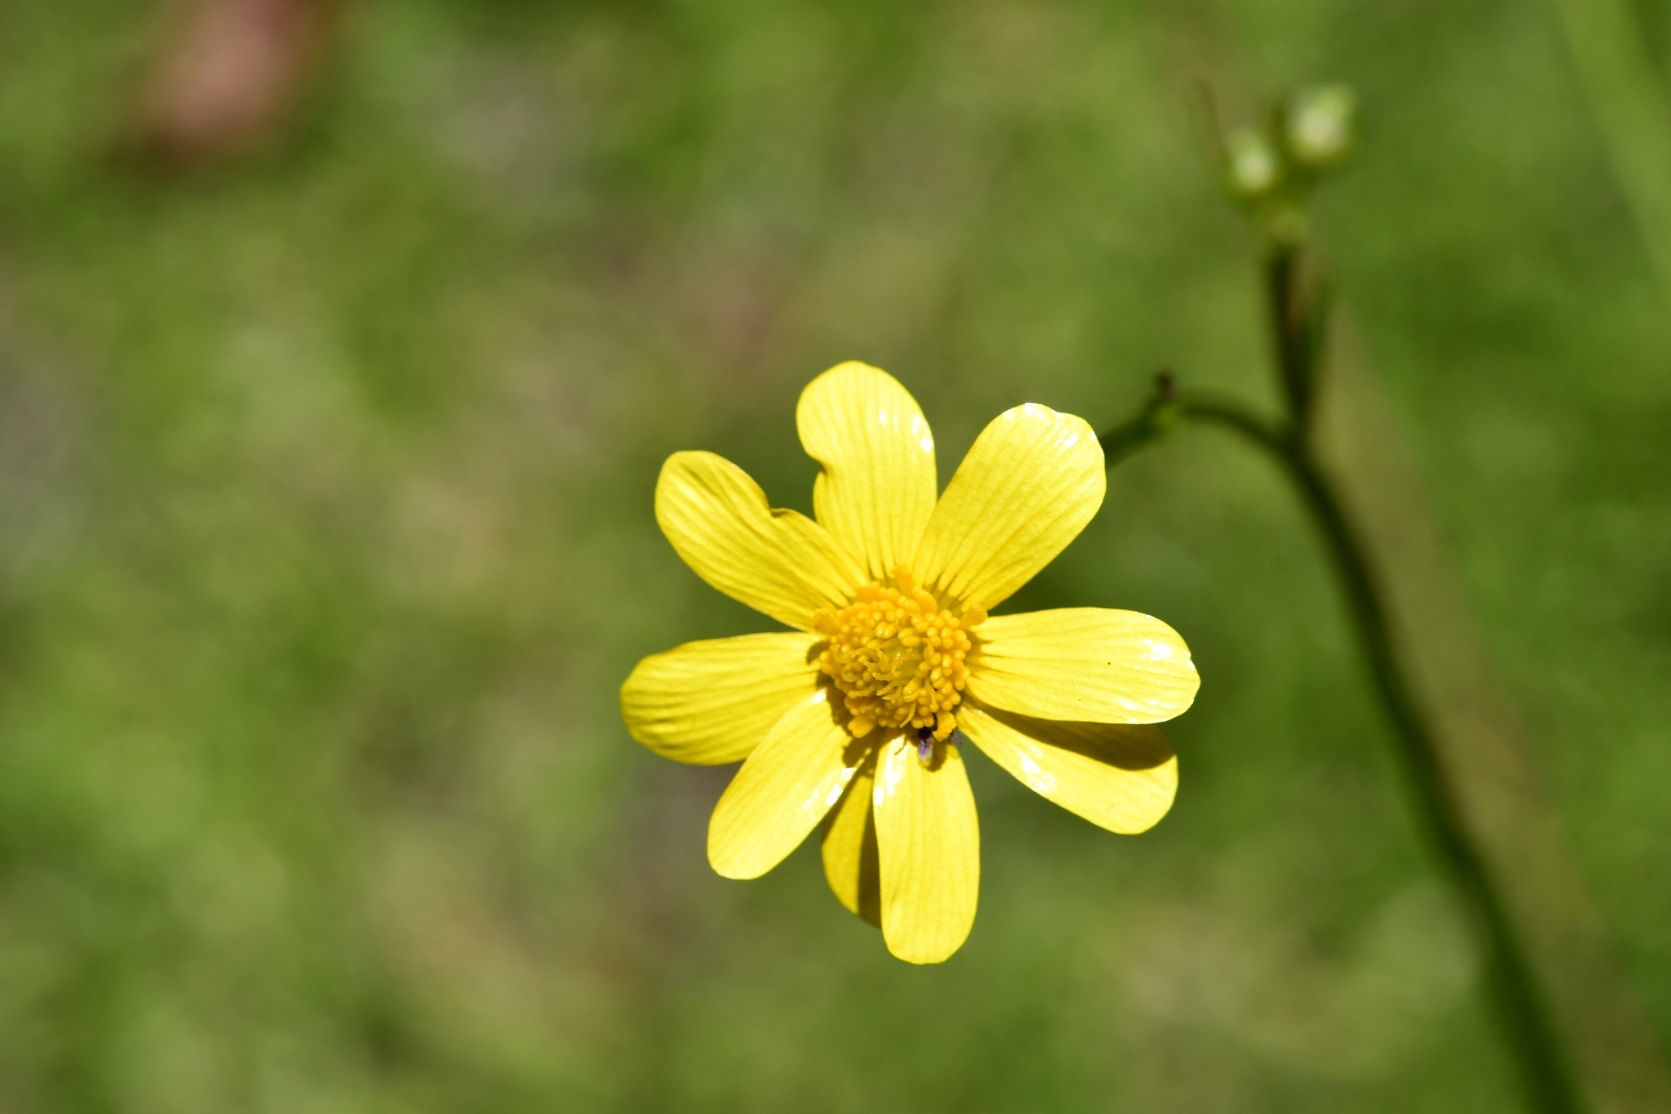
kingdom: Plantae
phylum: Tracheophyta
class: Magnoliopsida
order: Ranunculales
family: Ranunculaceae
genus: Ranunculus
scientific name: Ranunculus petiolaris
